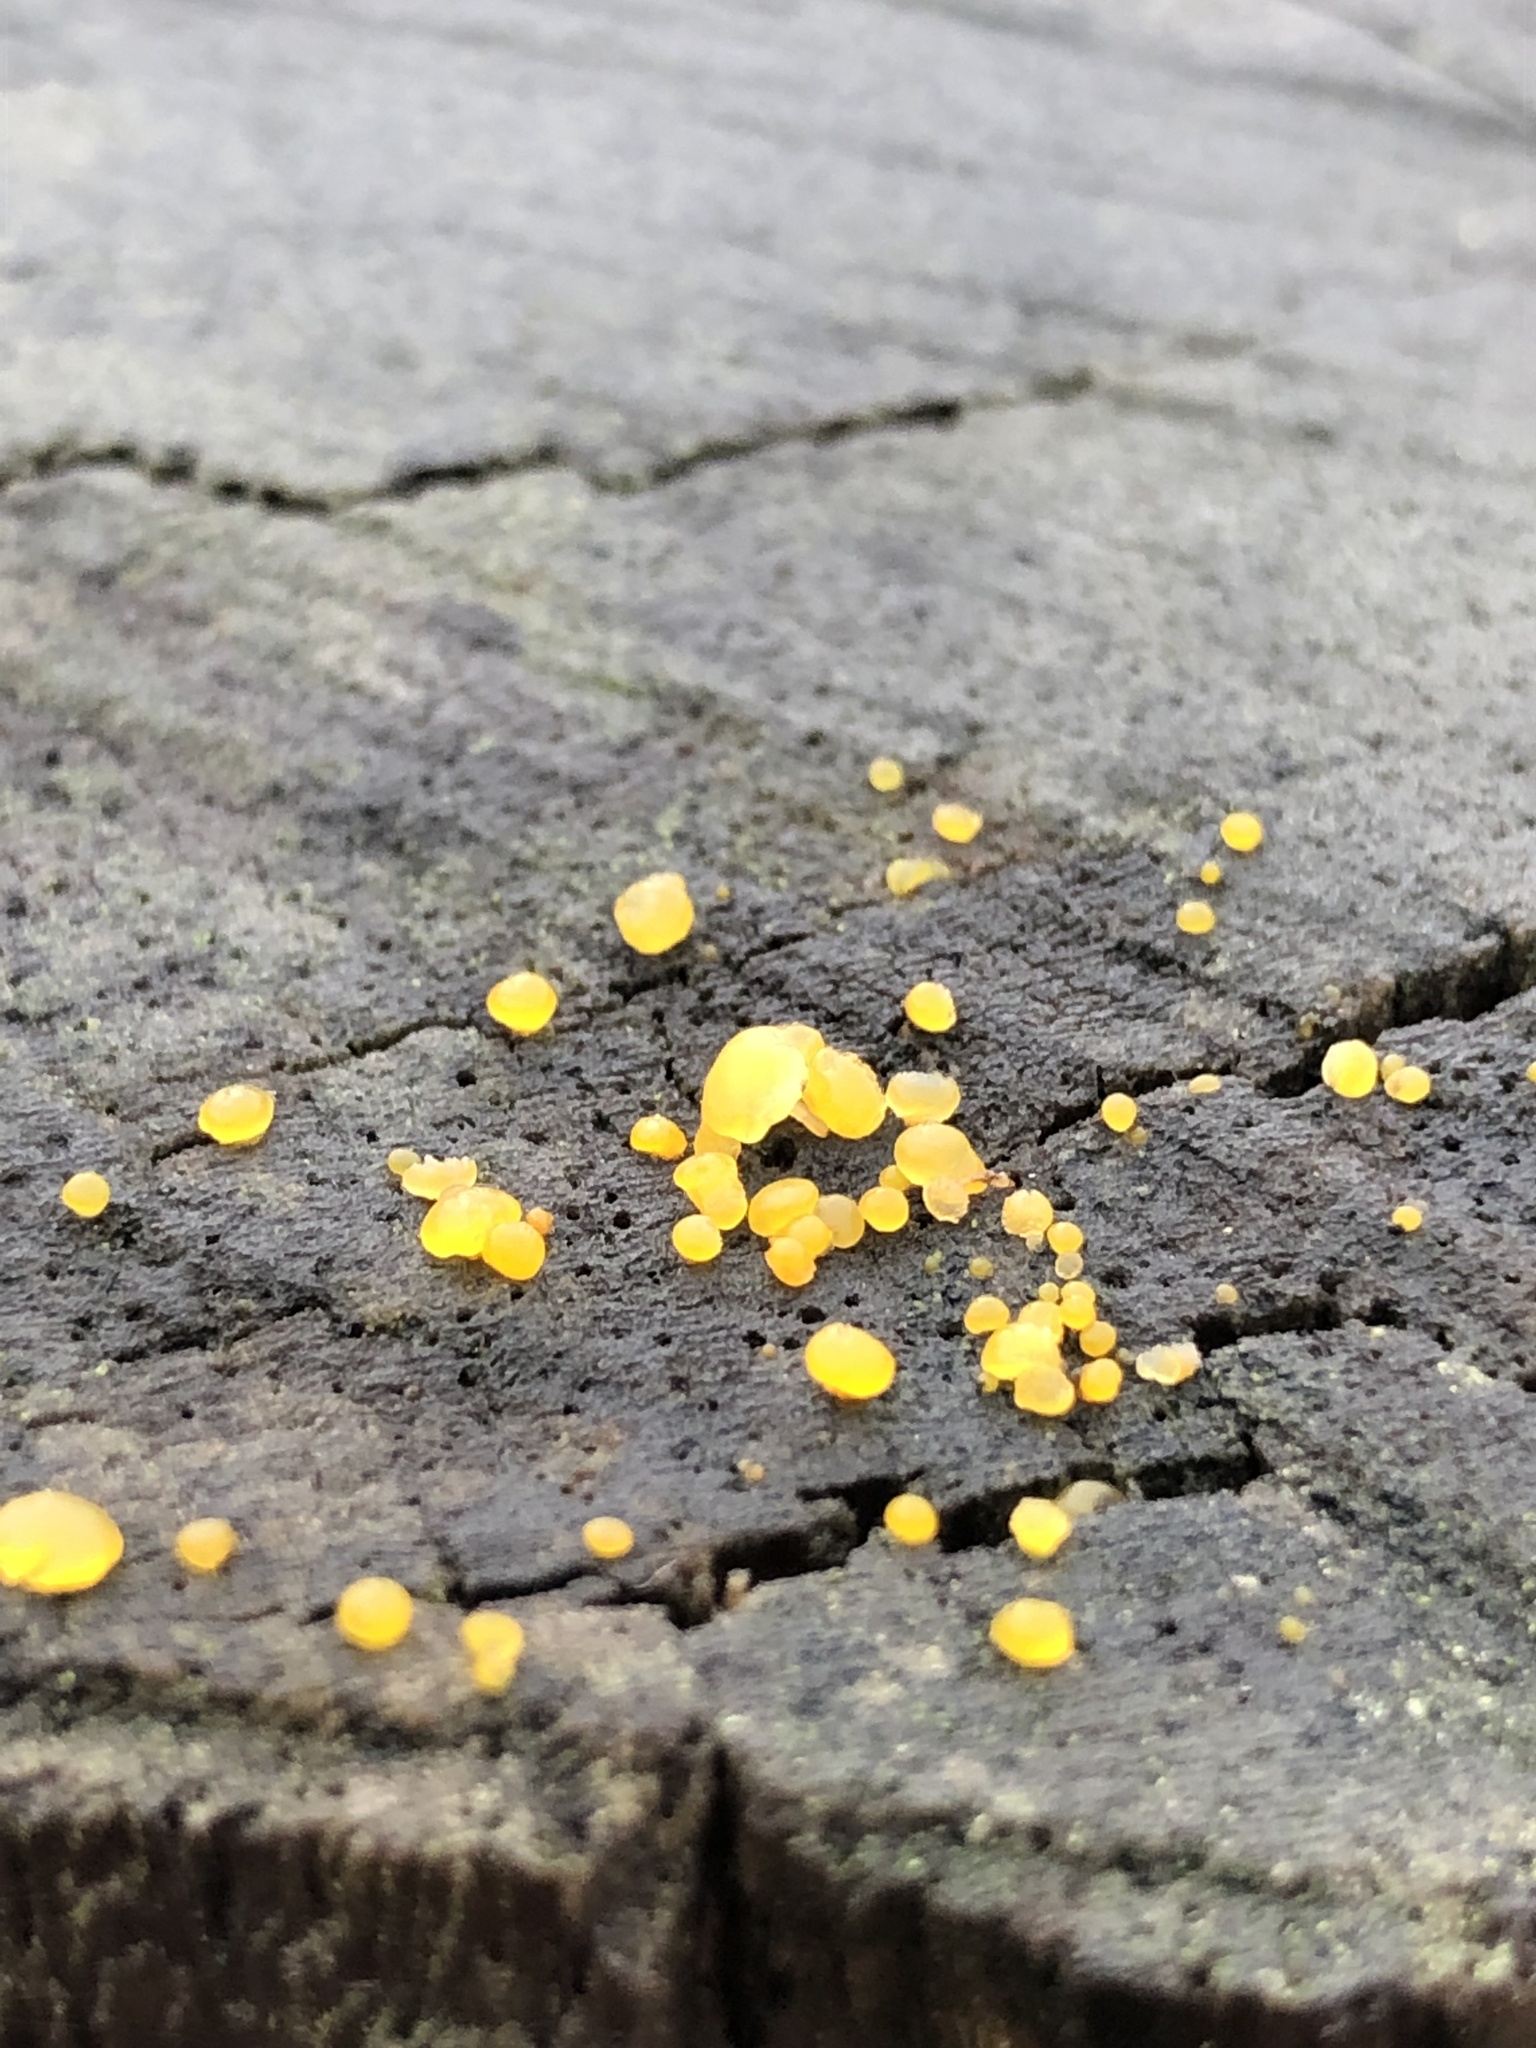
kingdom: Fungi
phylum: Basidiomycota
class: Dacrymycetes
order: Dacrymycetales
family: Dacrymycetaceae
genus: Dacrymyces
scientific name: Dacrymyces stillatus
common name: Common jelly spot
